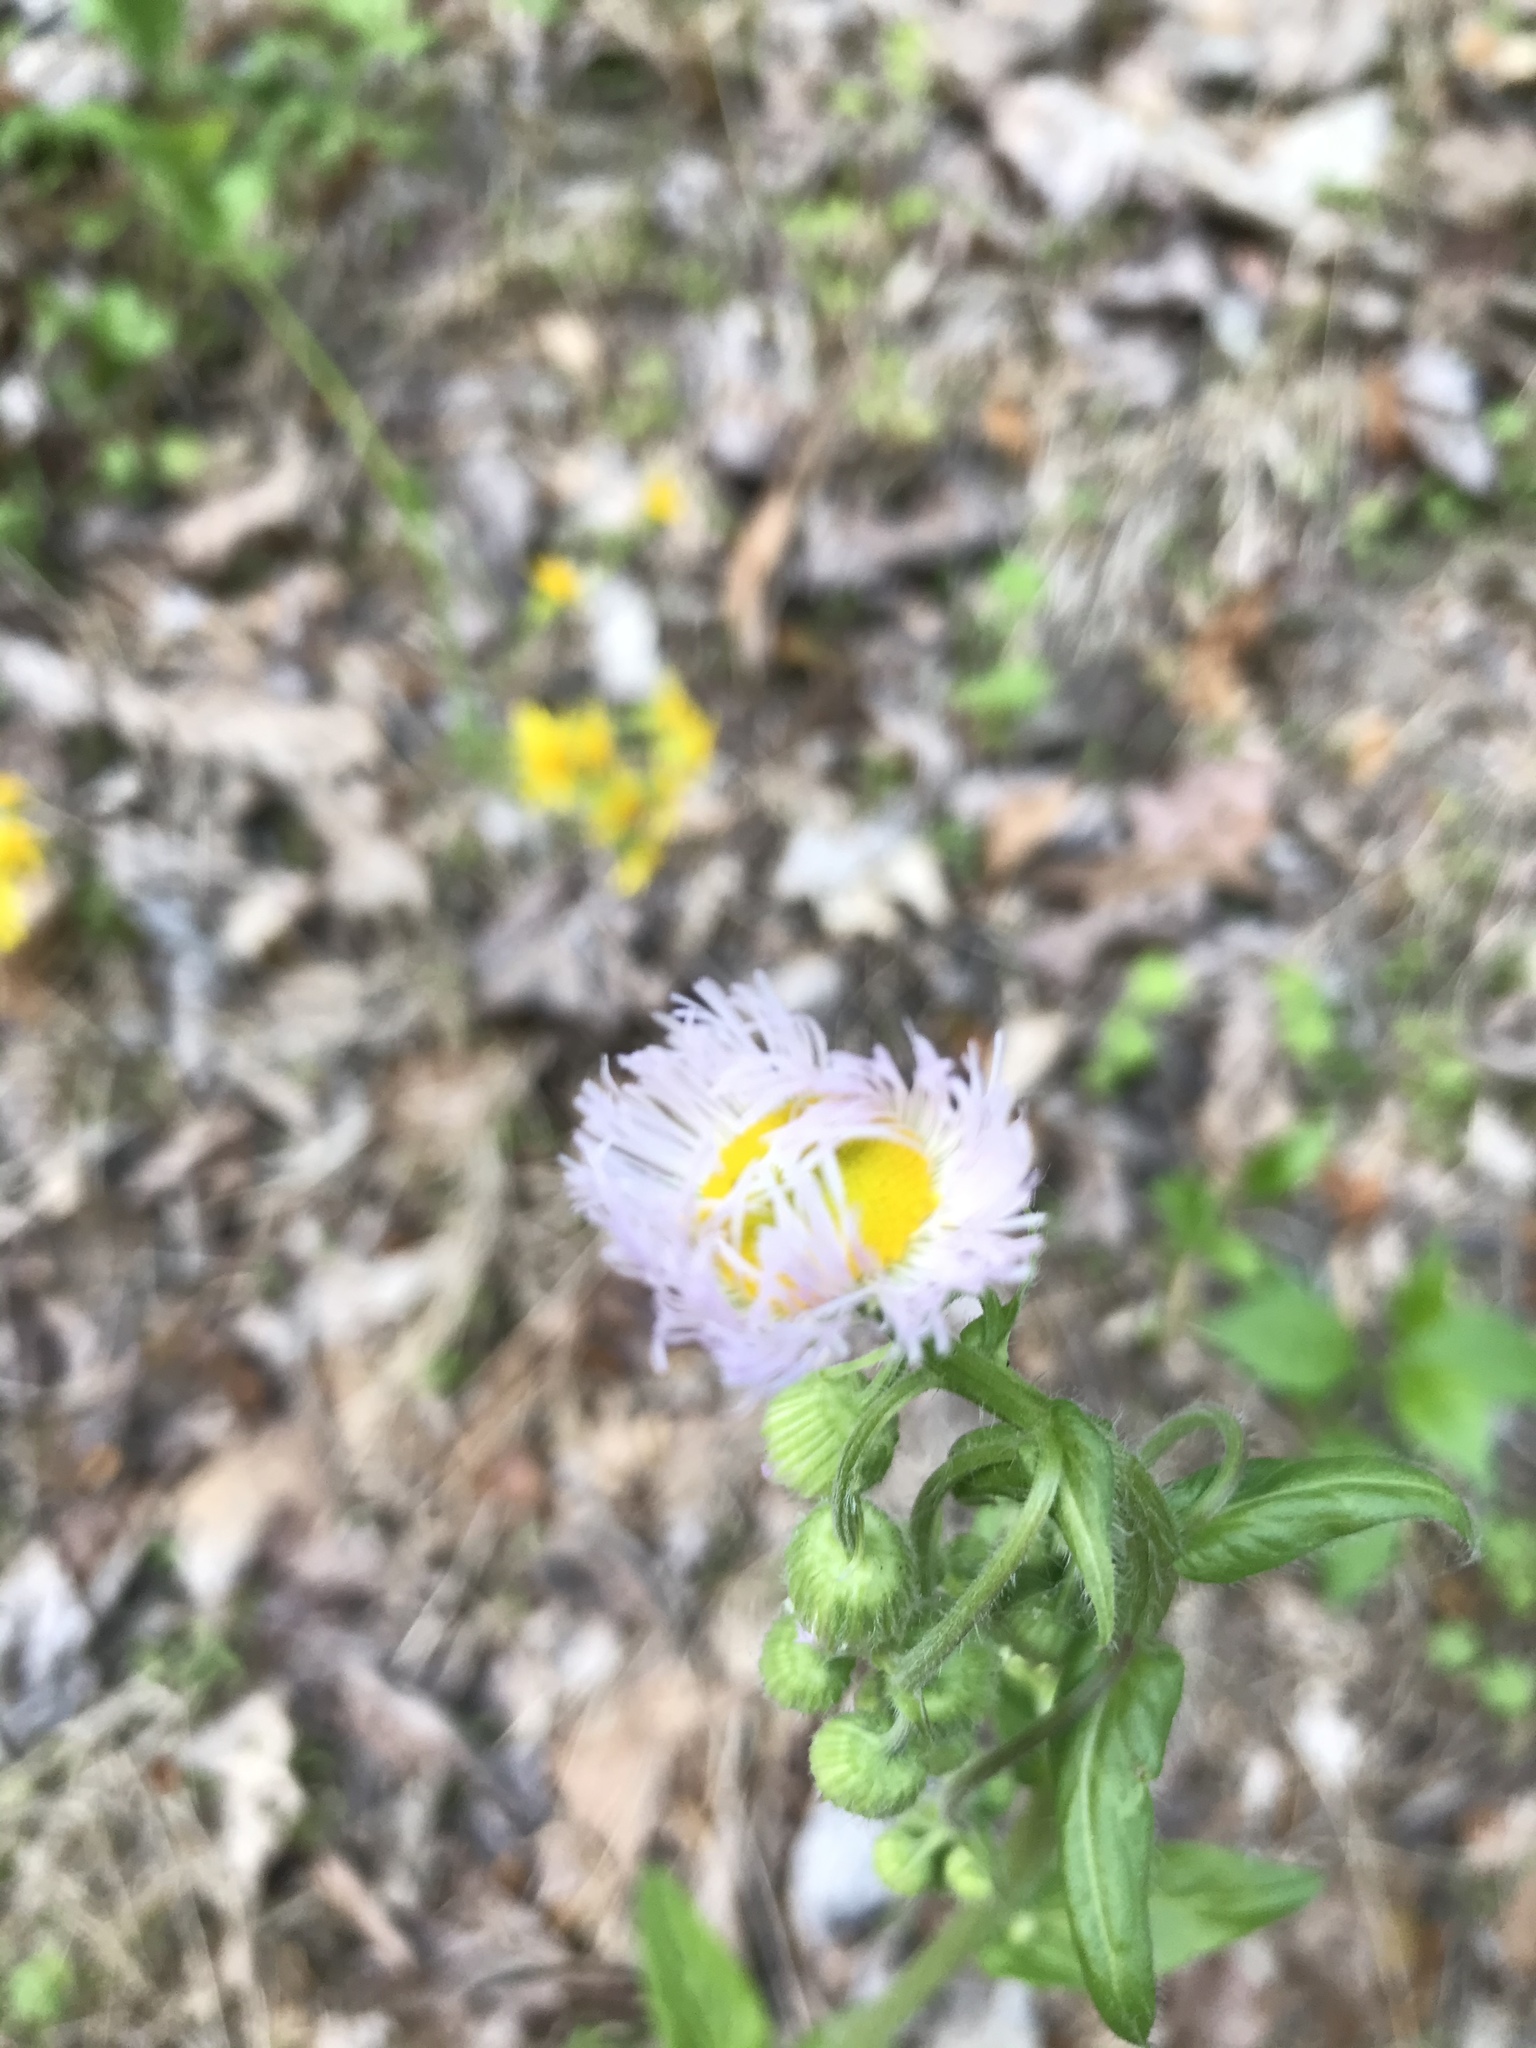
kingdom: Plantae
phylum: Tracheophyta
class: Magnoliopsida
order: Asterales
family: Asteraceae
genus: Erigeron
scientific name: Erigeron philadelphicus
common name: Robin's-plantain
